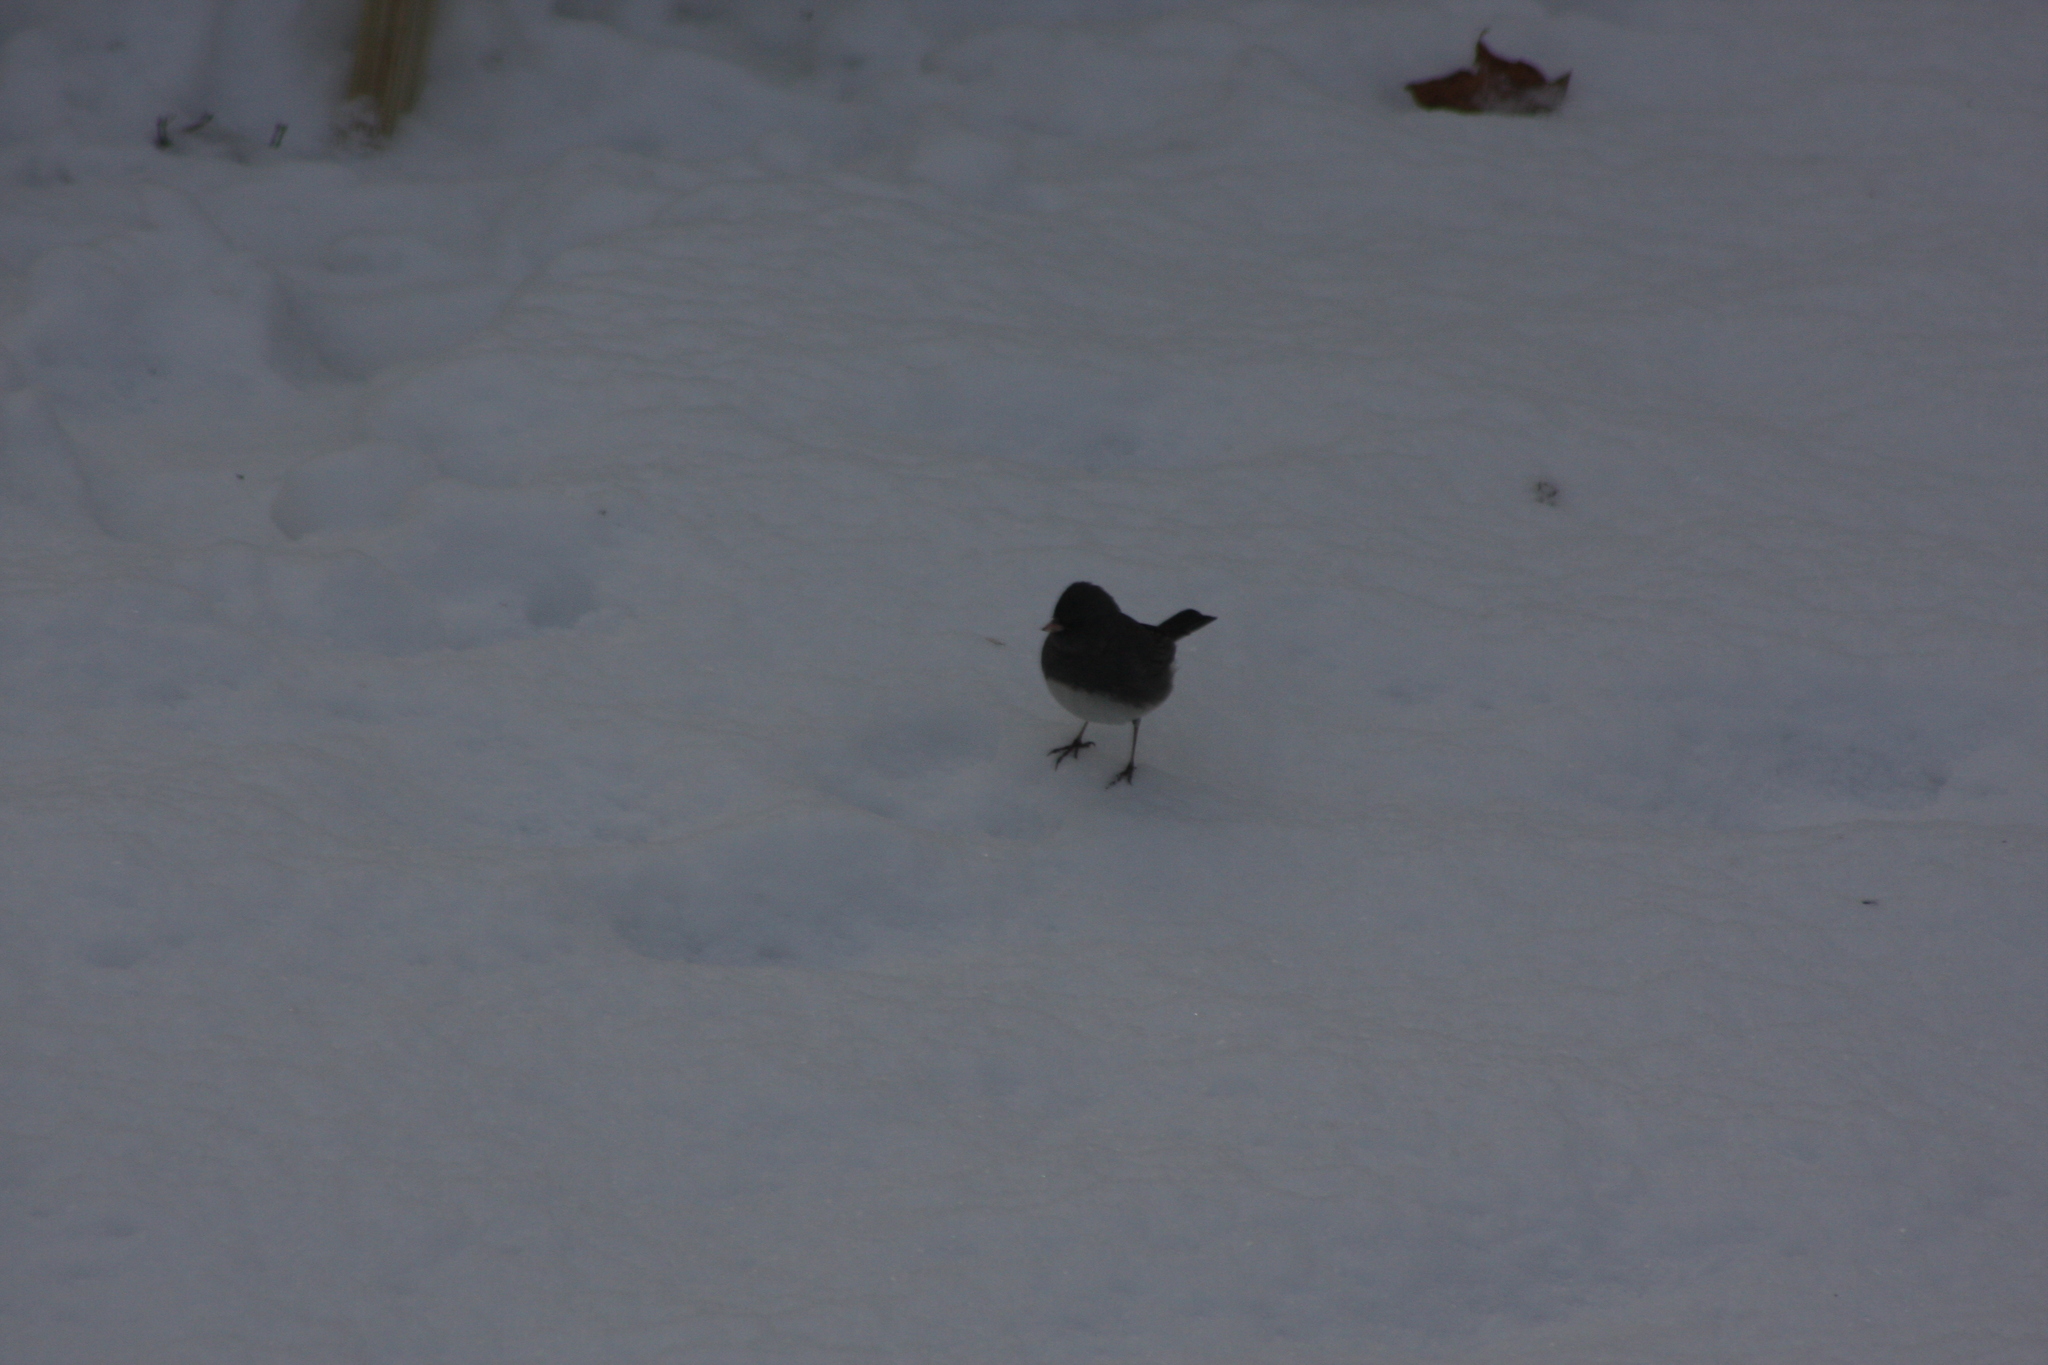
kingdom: Animalia
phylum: Chordata
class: Aves
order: Passeriformes
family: Passerellidae
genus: Junco
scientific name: Junco hyemalis
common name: Dark-eyed junco
